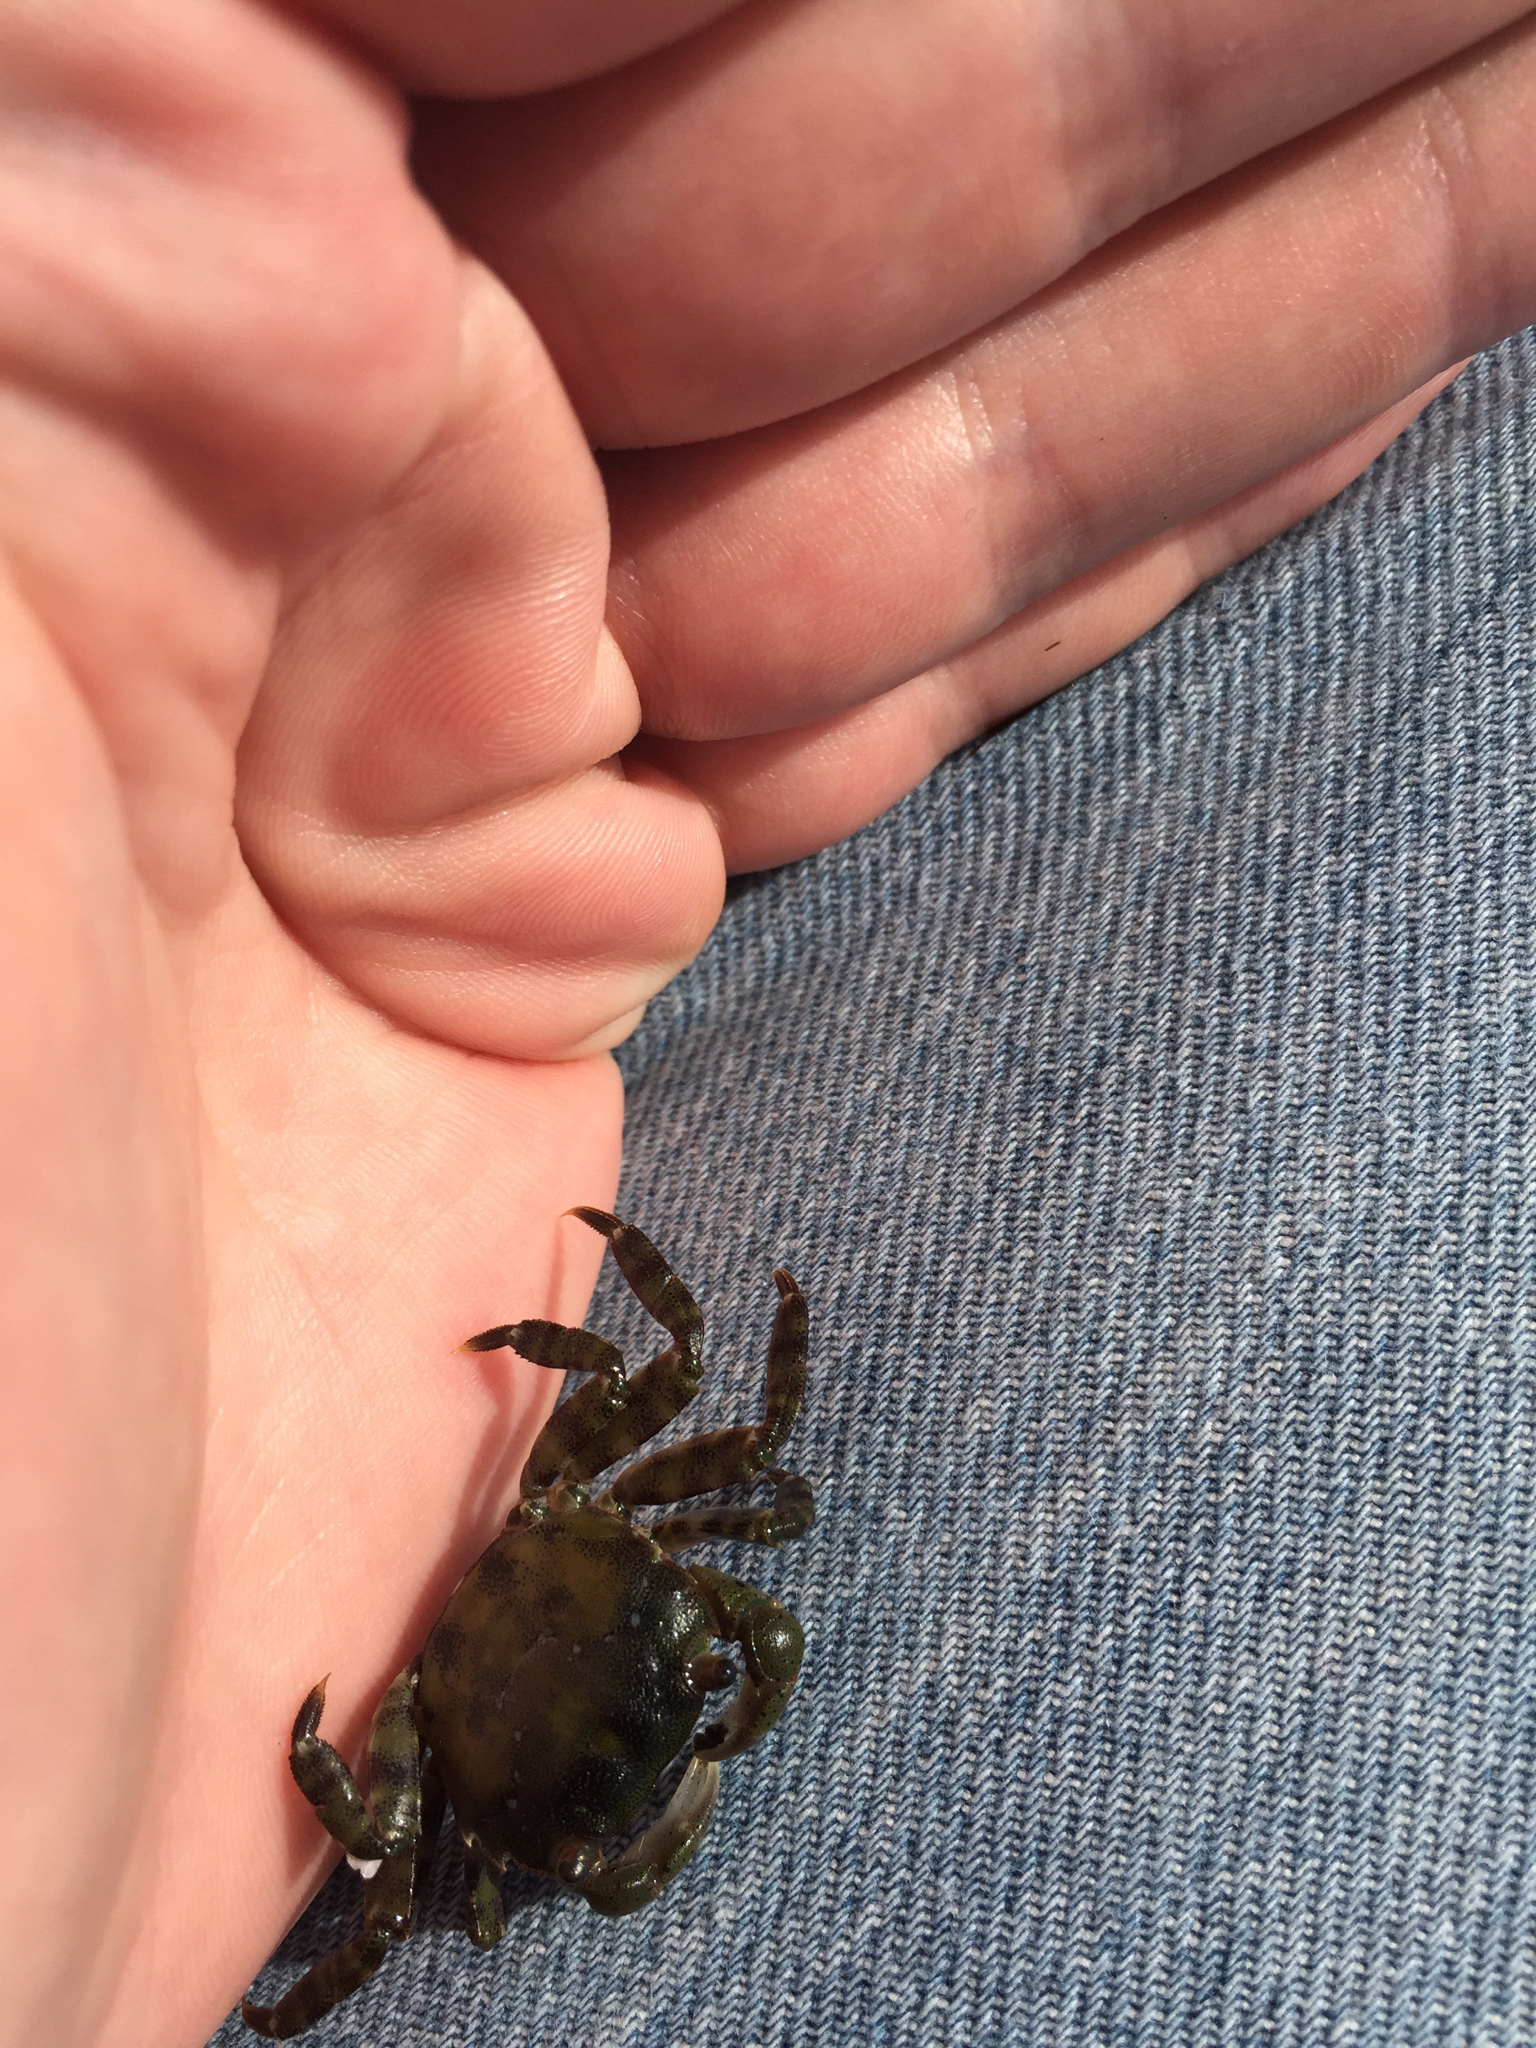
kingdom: Animalia
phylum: Arthropoda
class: Malacostraca
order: Decapoda
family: Varunidae
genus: Hemigrapsus
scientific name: Hemigrapsus sanguineus
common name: Asian shore crab
